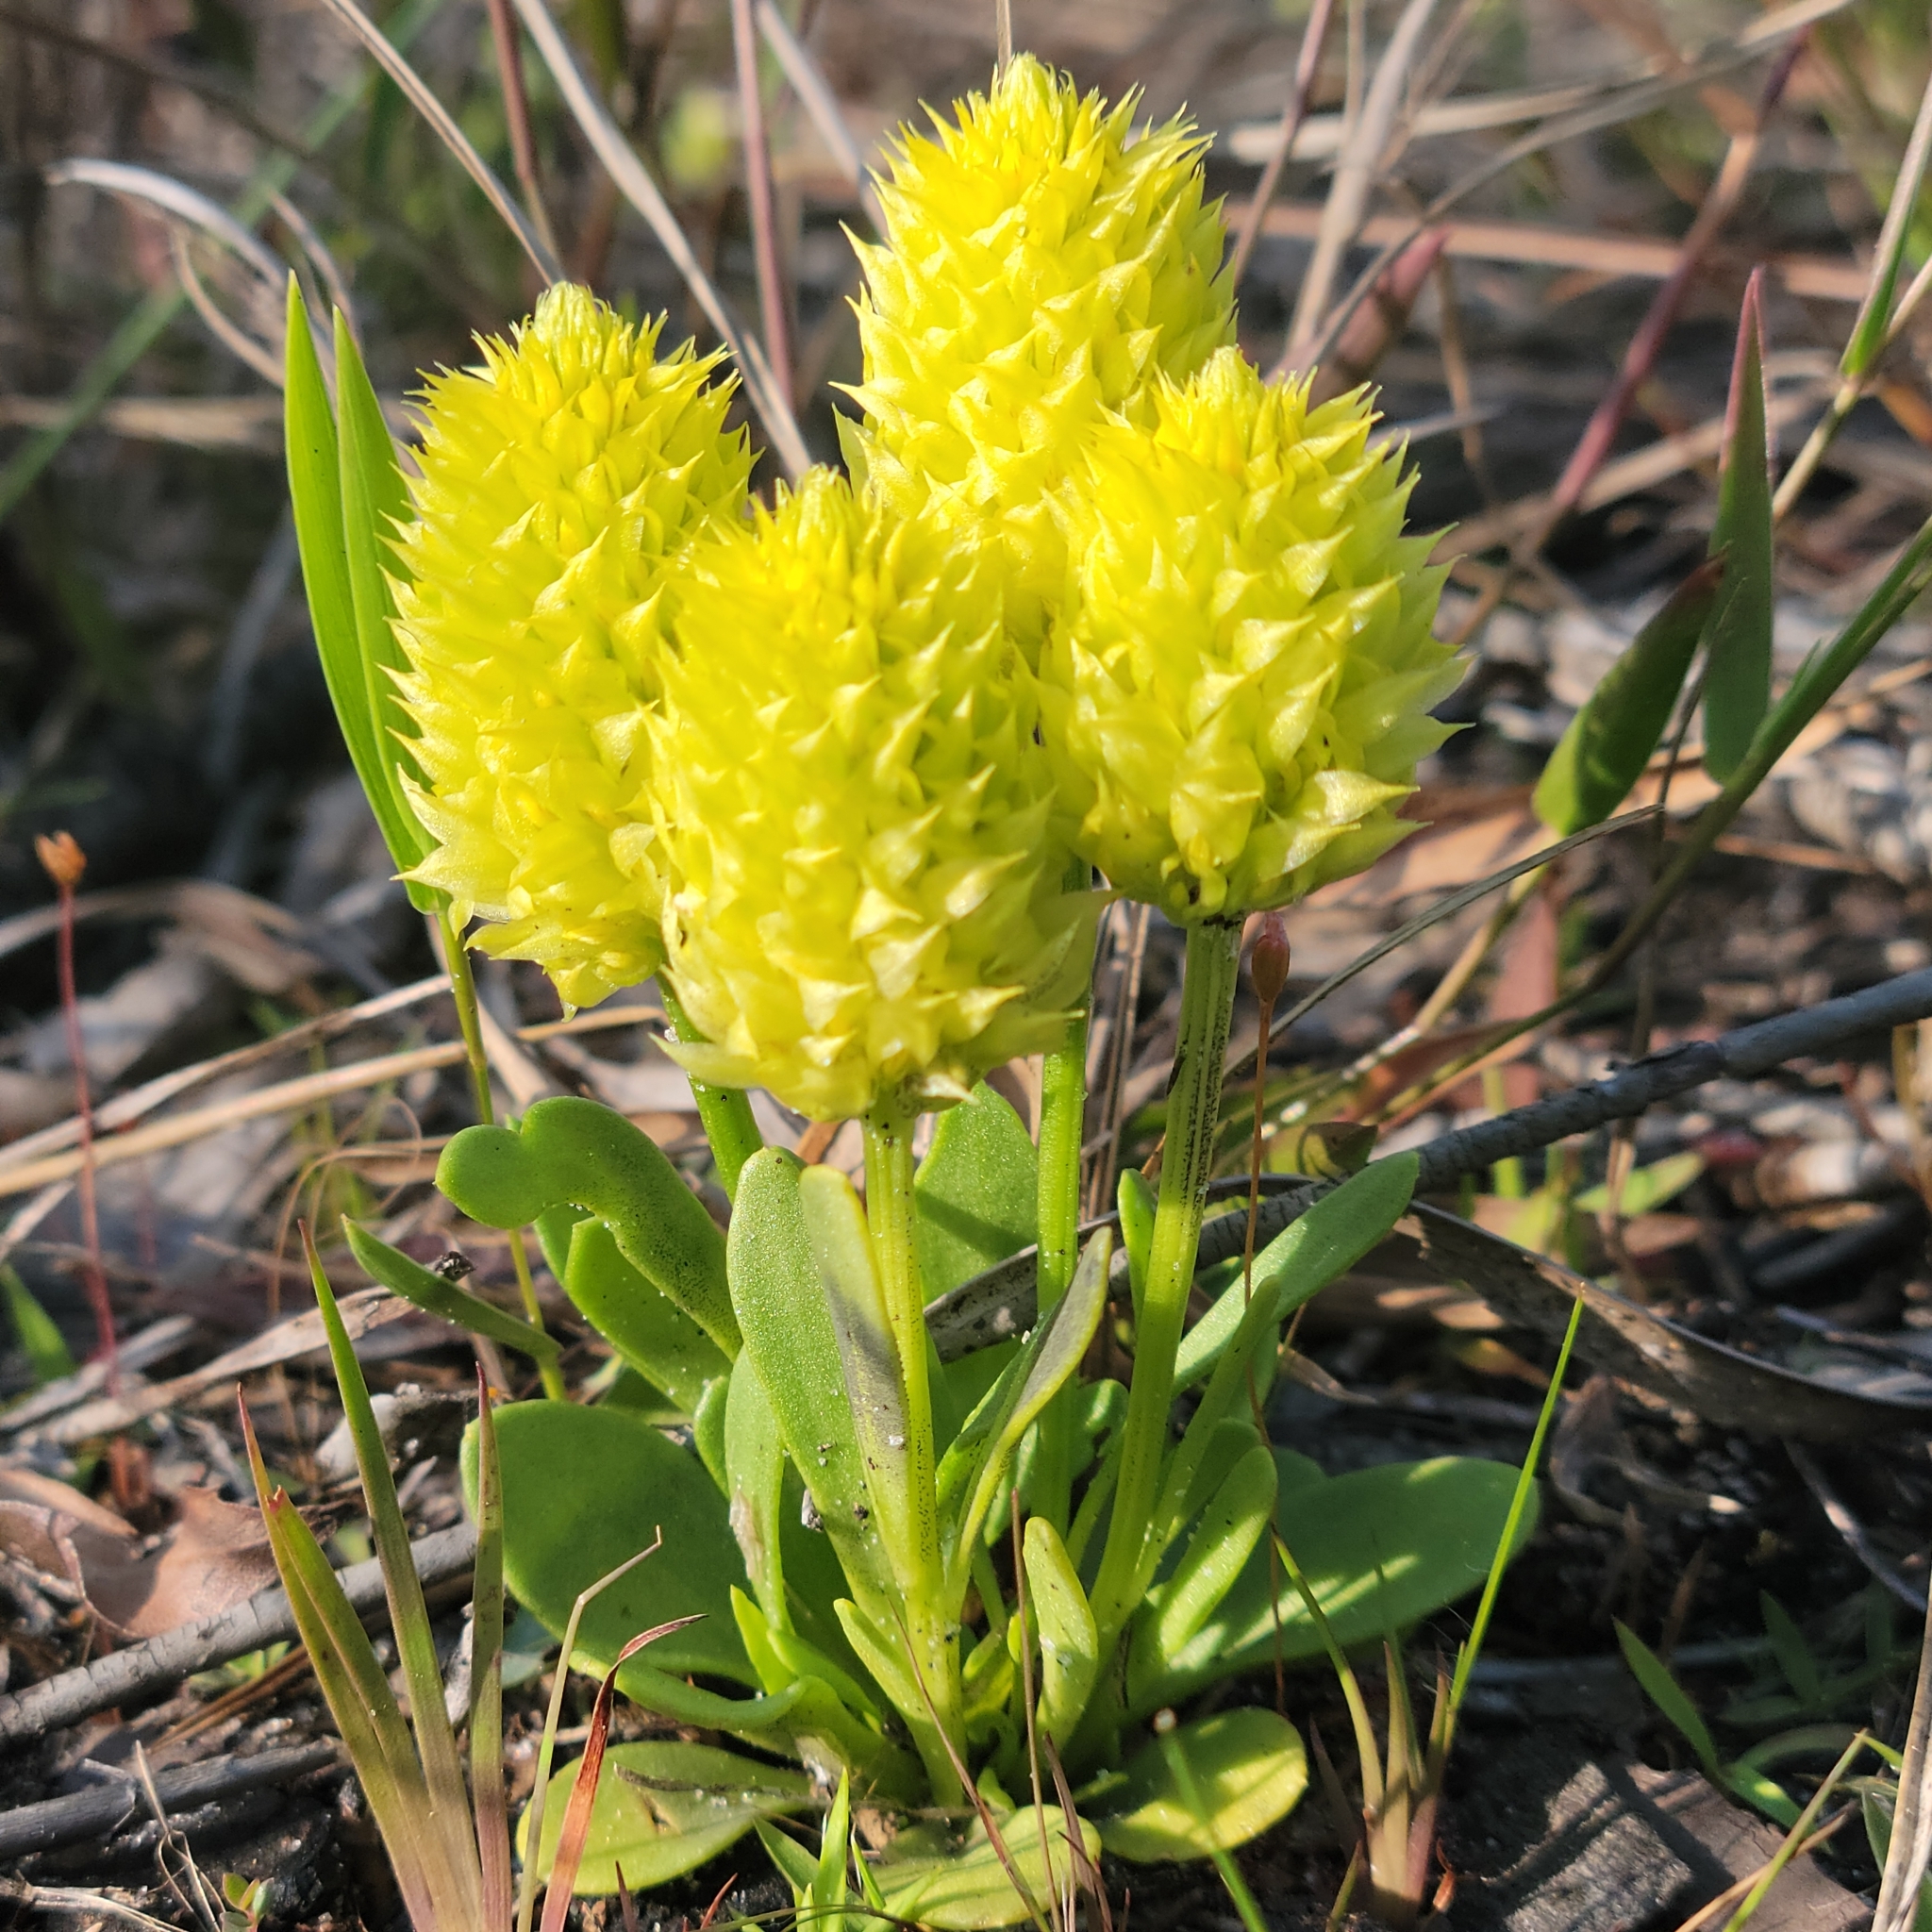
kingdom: Plantae
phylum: Tracheophyta
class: Magnoliopsida
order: Fabales
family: Polygalaceae
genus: Polygala
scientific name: Polygala nana
